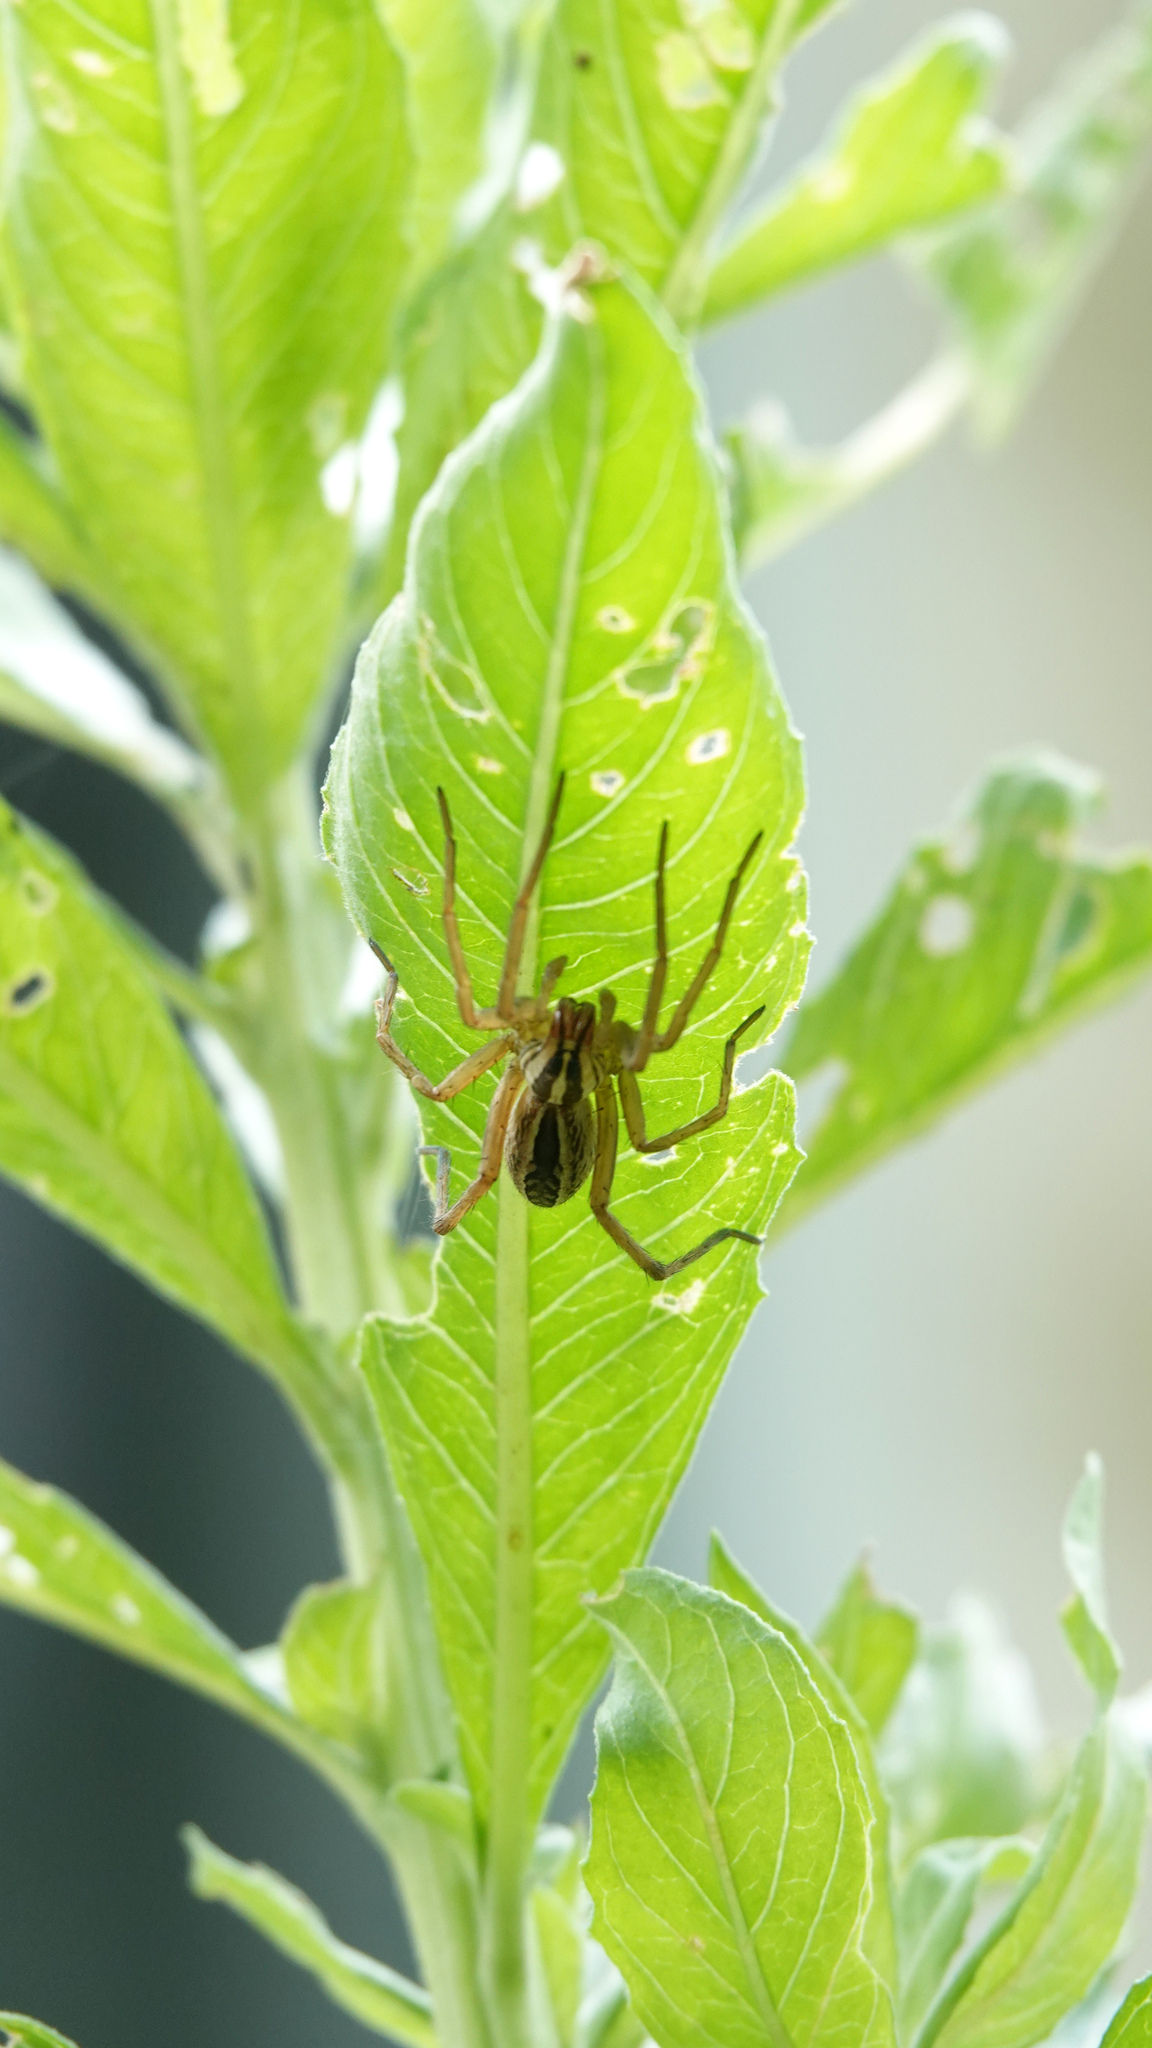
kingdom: Animalia
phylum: Arthropoda
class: Arachnida
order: Araneae
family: Lycosidae
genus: Rabidosa
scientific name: Rabidosa rabida
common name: Rabid wolf spider
